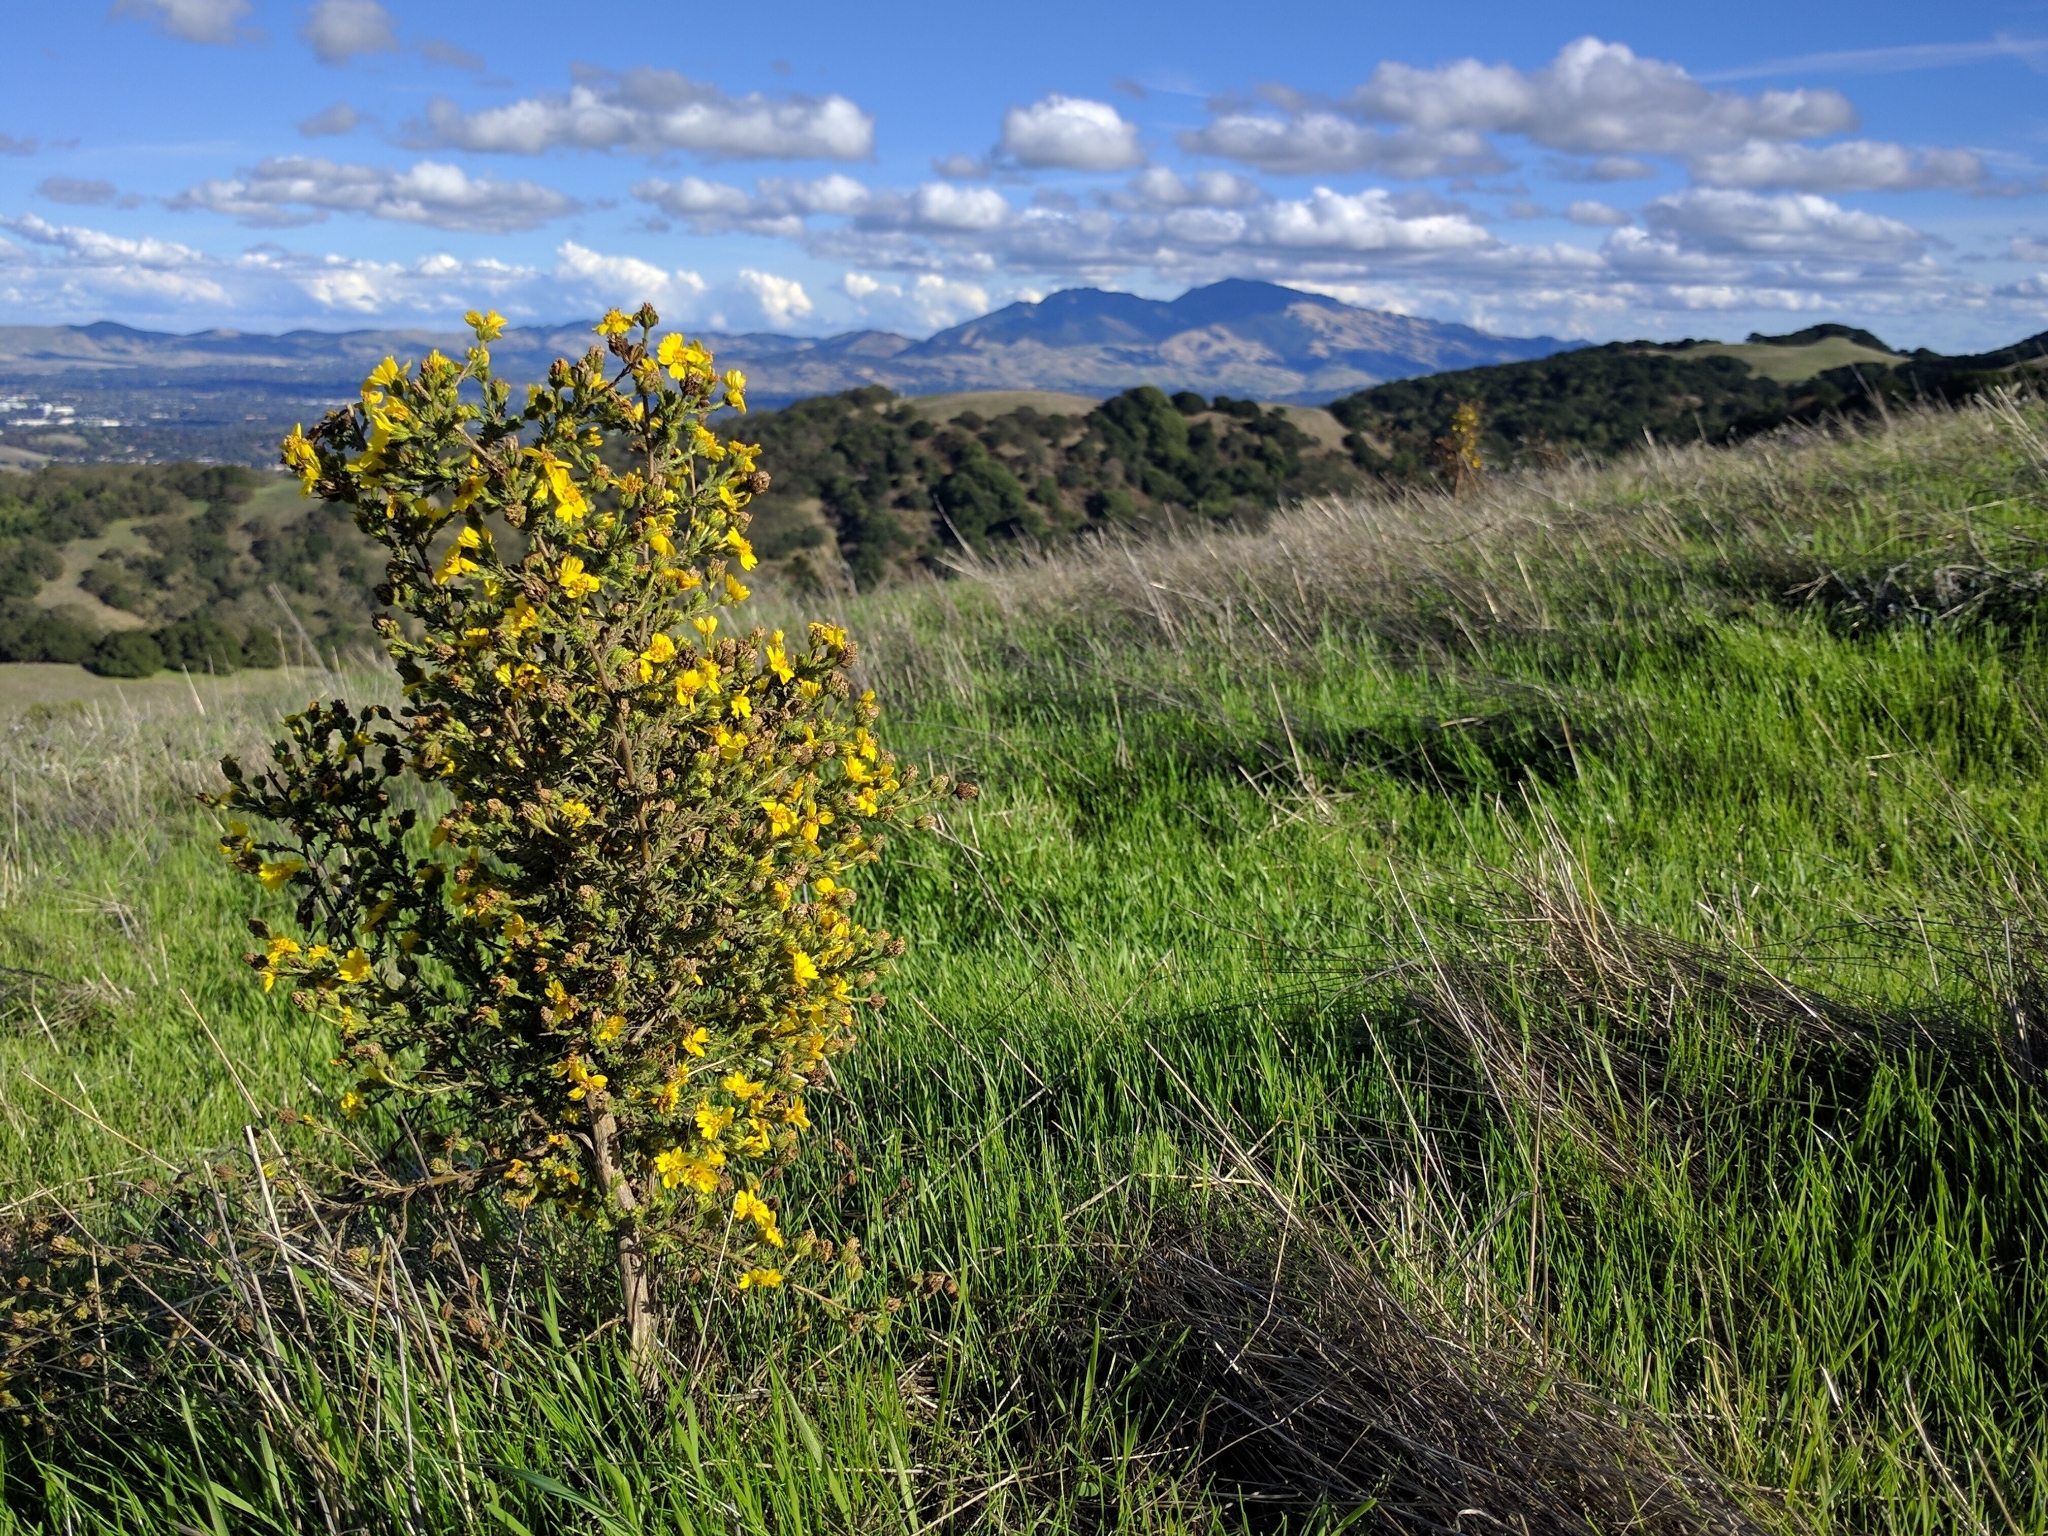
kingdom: Plantae
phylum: Tracheophyta
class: Magnoliopsida
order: Asterales
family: Asteraceae
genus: Holocarpha
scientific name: Holocarpha heermannii
